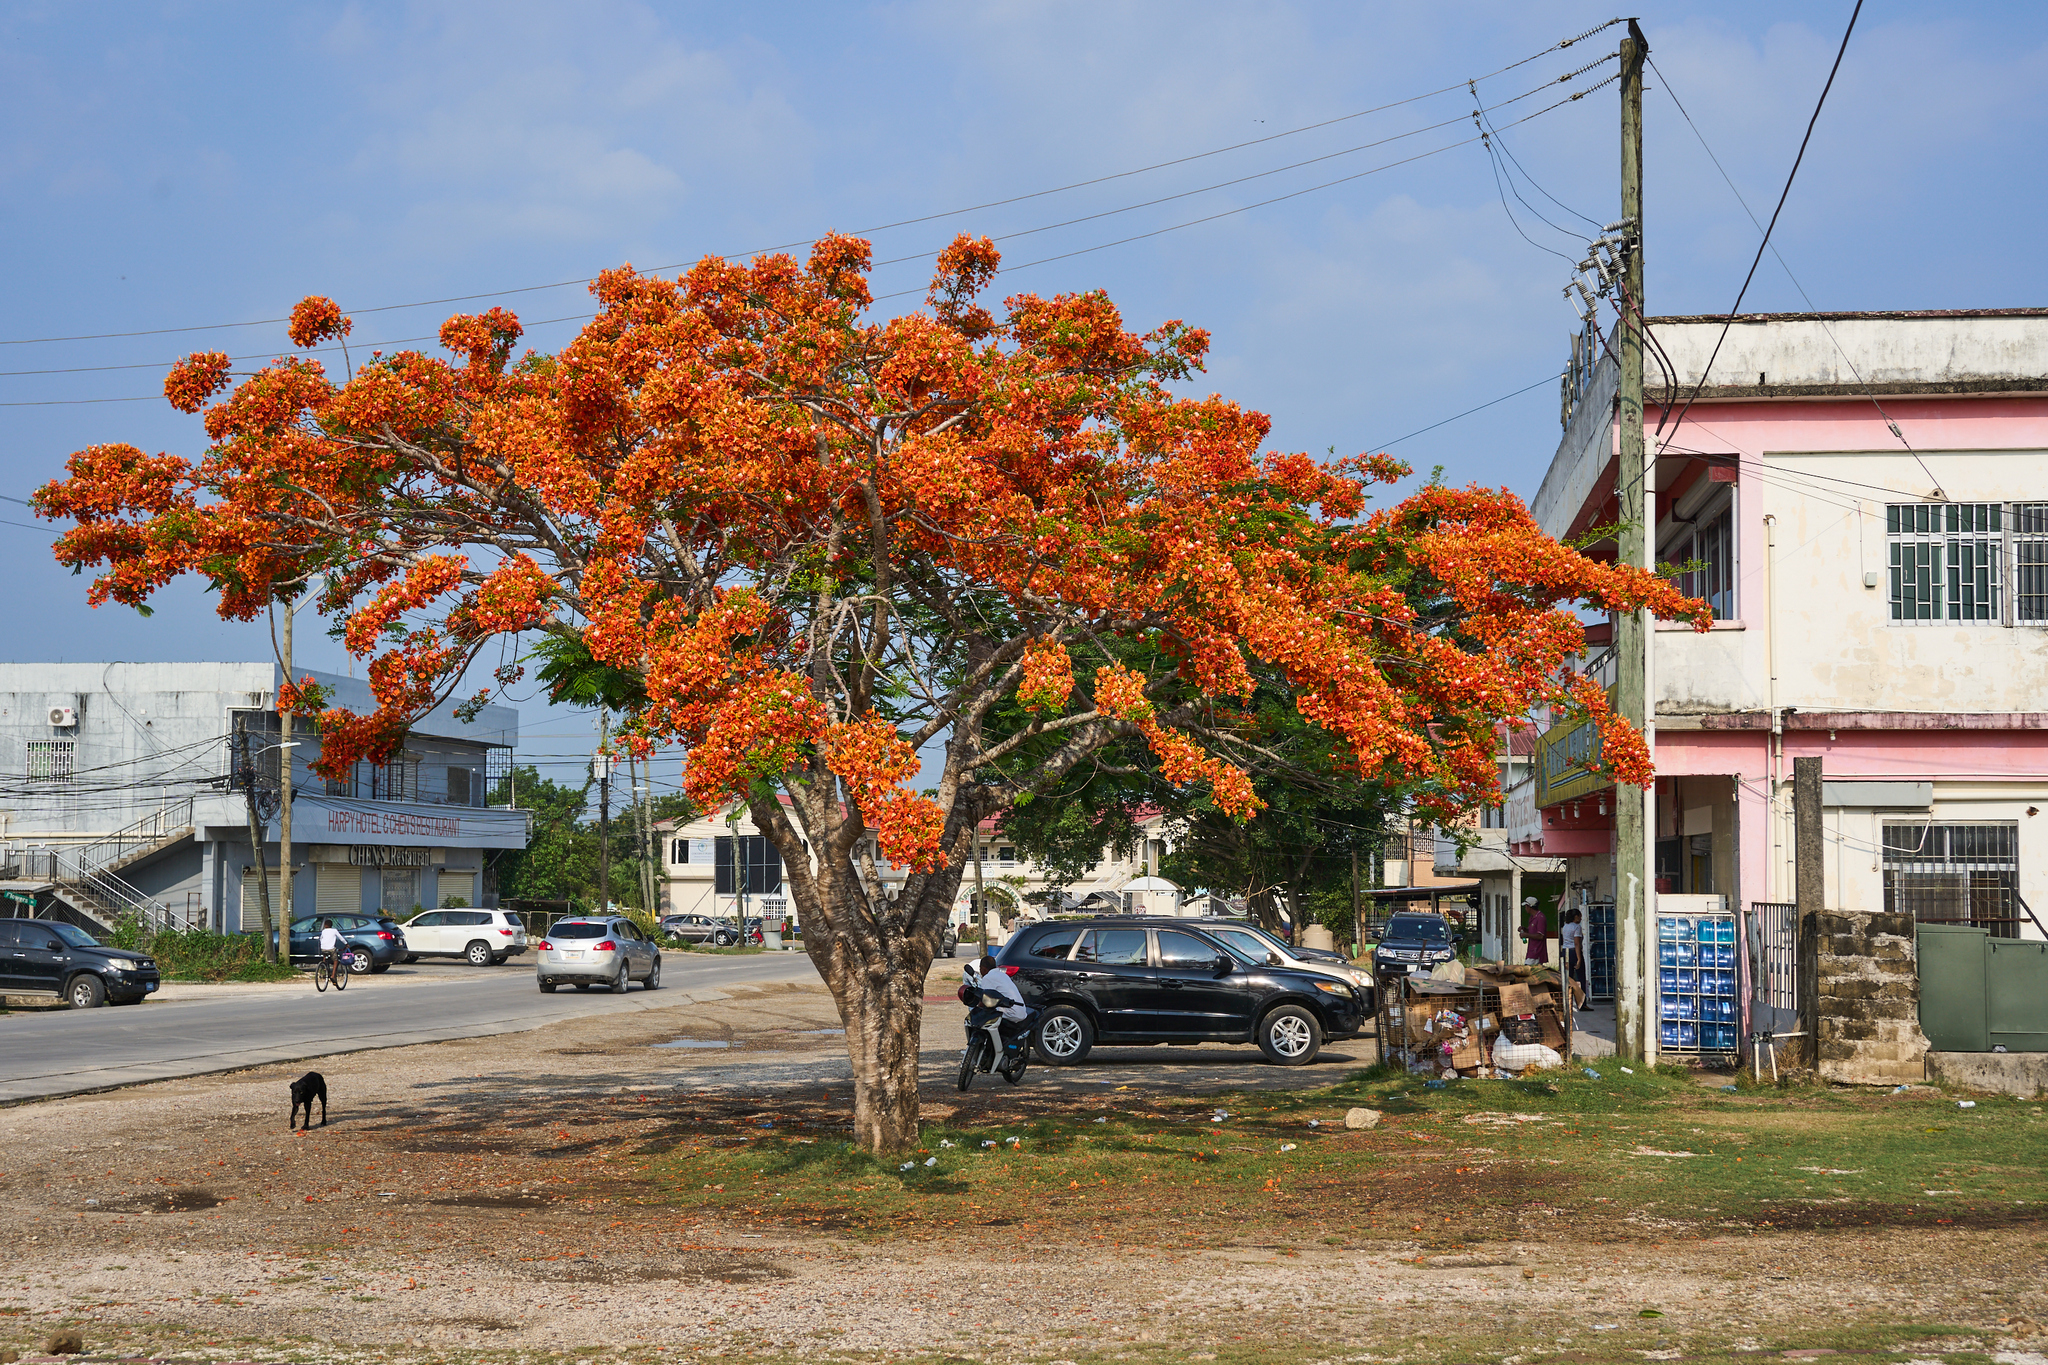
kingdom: Plantae
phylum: Tracheophyta
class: Magnoliopsida
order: Fabales
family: Fabaceae
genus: Delonix
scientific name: Delonix regia
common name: Royal poinciana
